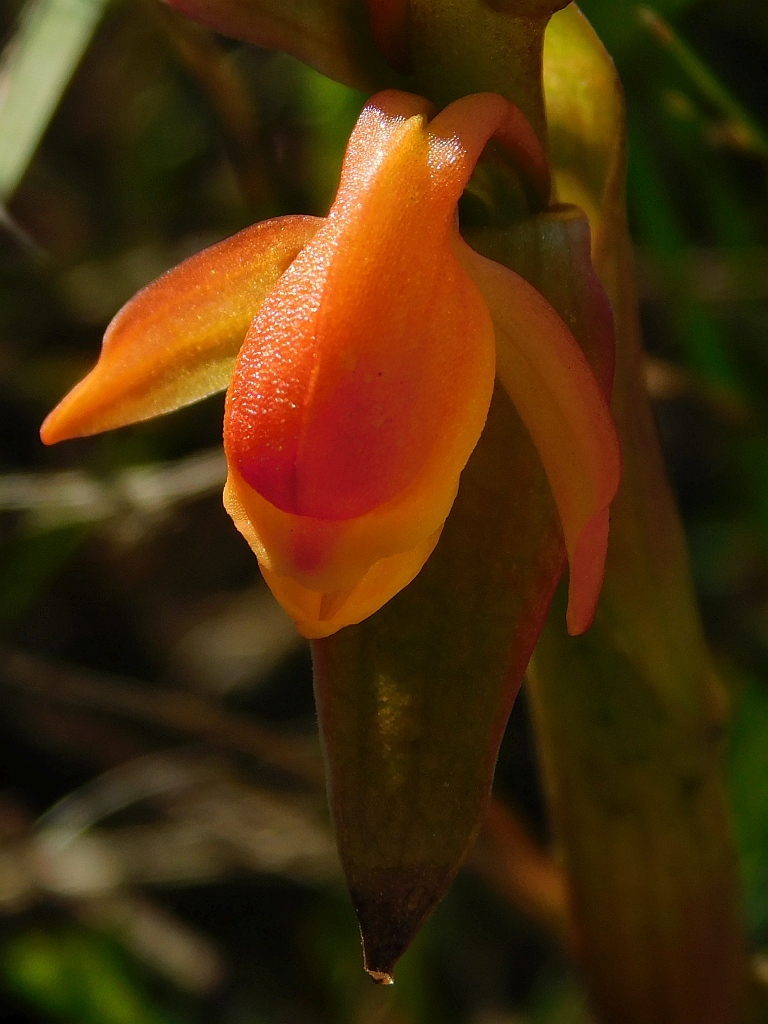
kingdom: Plantae
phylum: Tracheophyta
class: Liliopsida
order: Asparagales
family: Orchidaceae
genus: Satyrium
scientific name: Satyrium coriifolium
